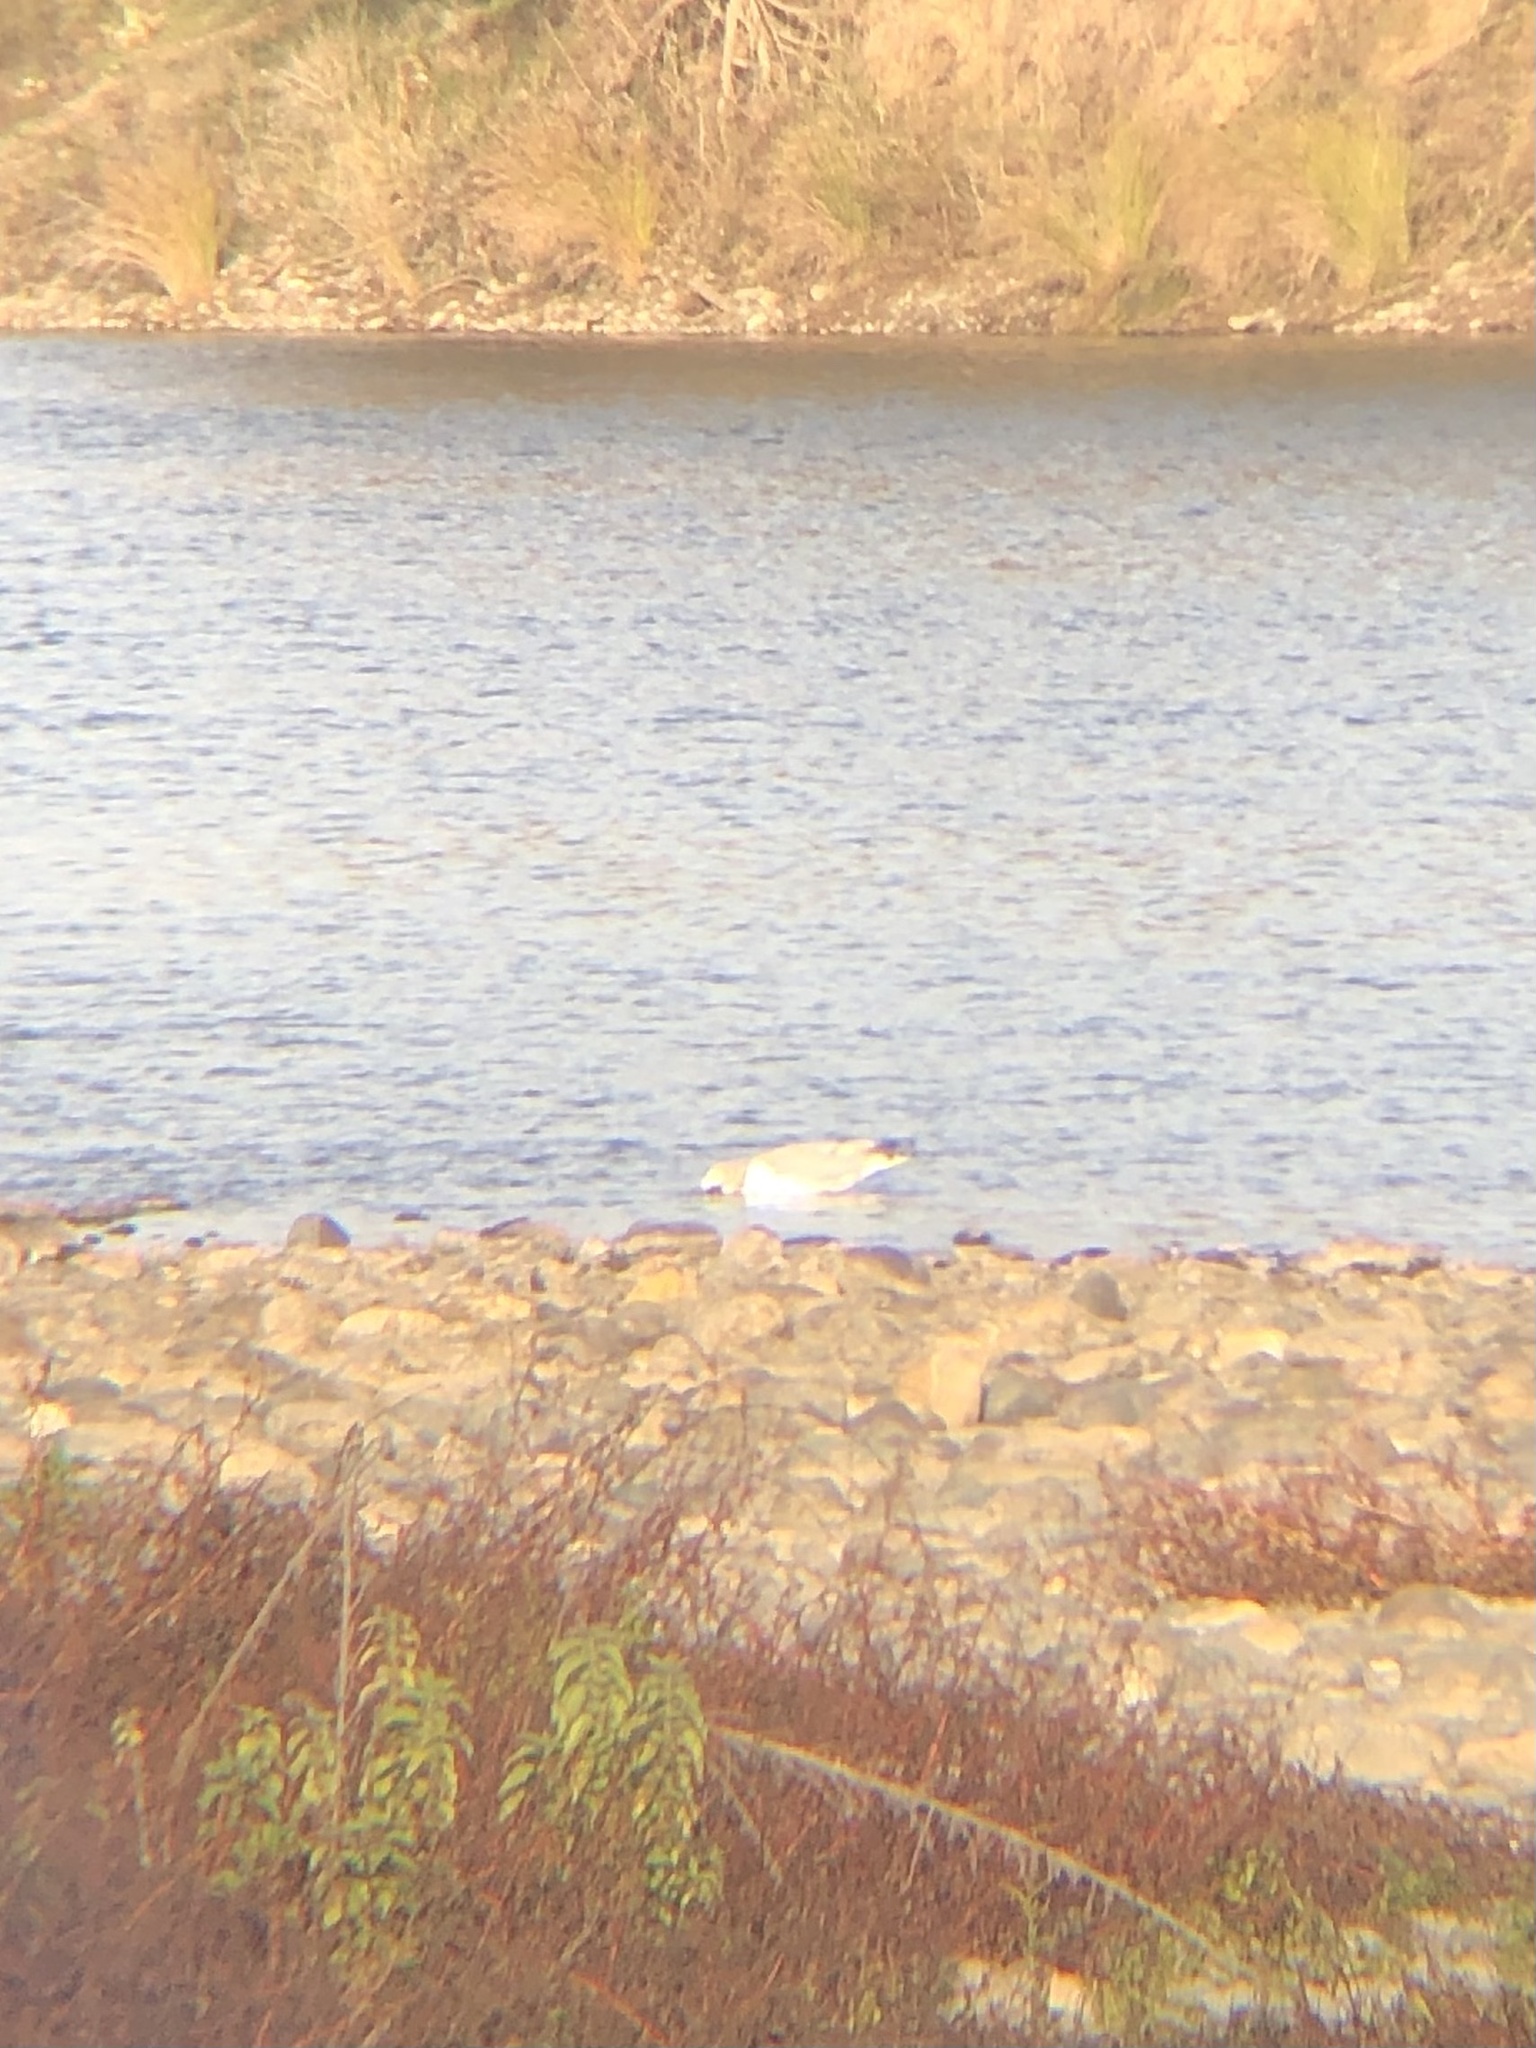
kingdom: Animalia
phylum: Chordata
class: Aves
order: Charadriiformes
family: Laridae
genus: Larus
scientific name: Larus
